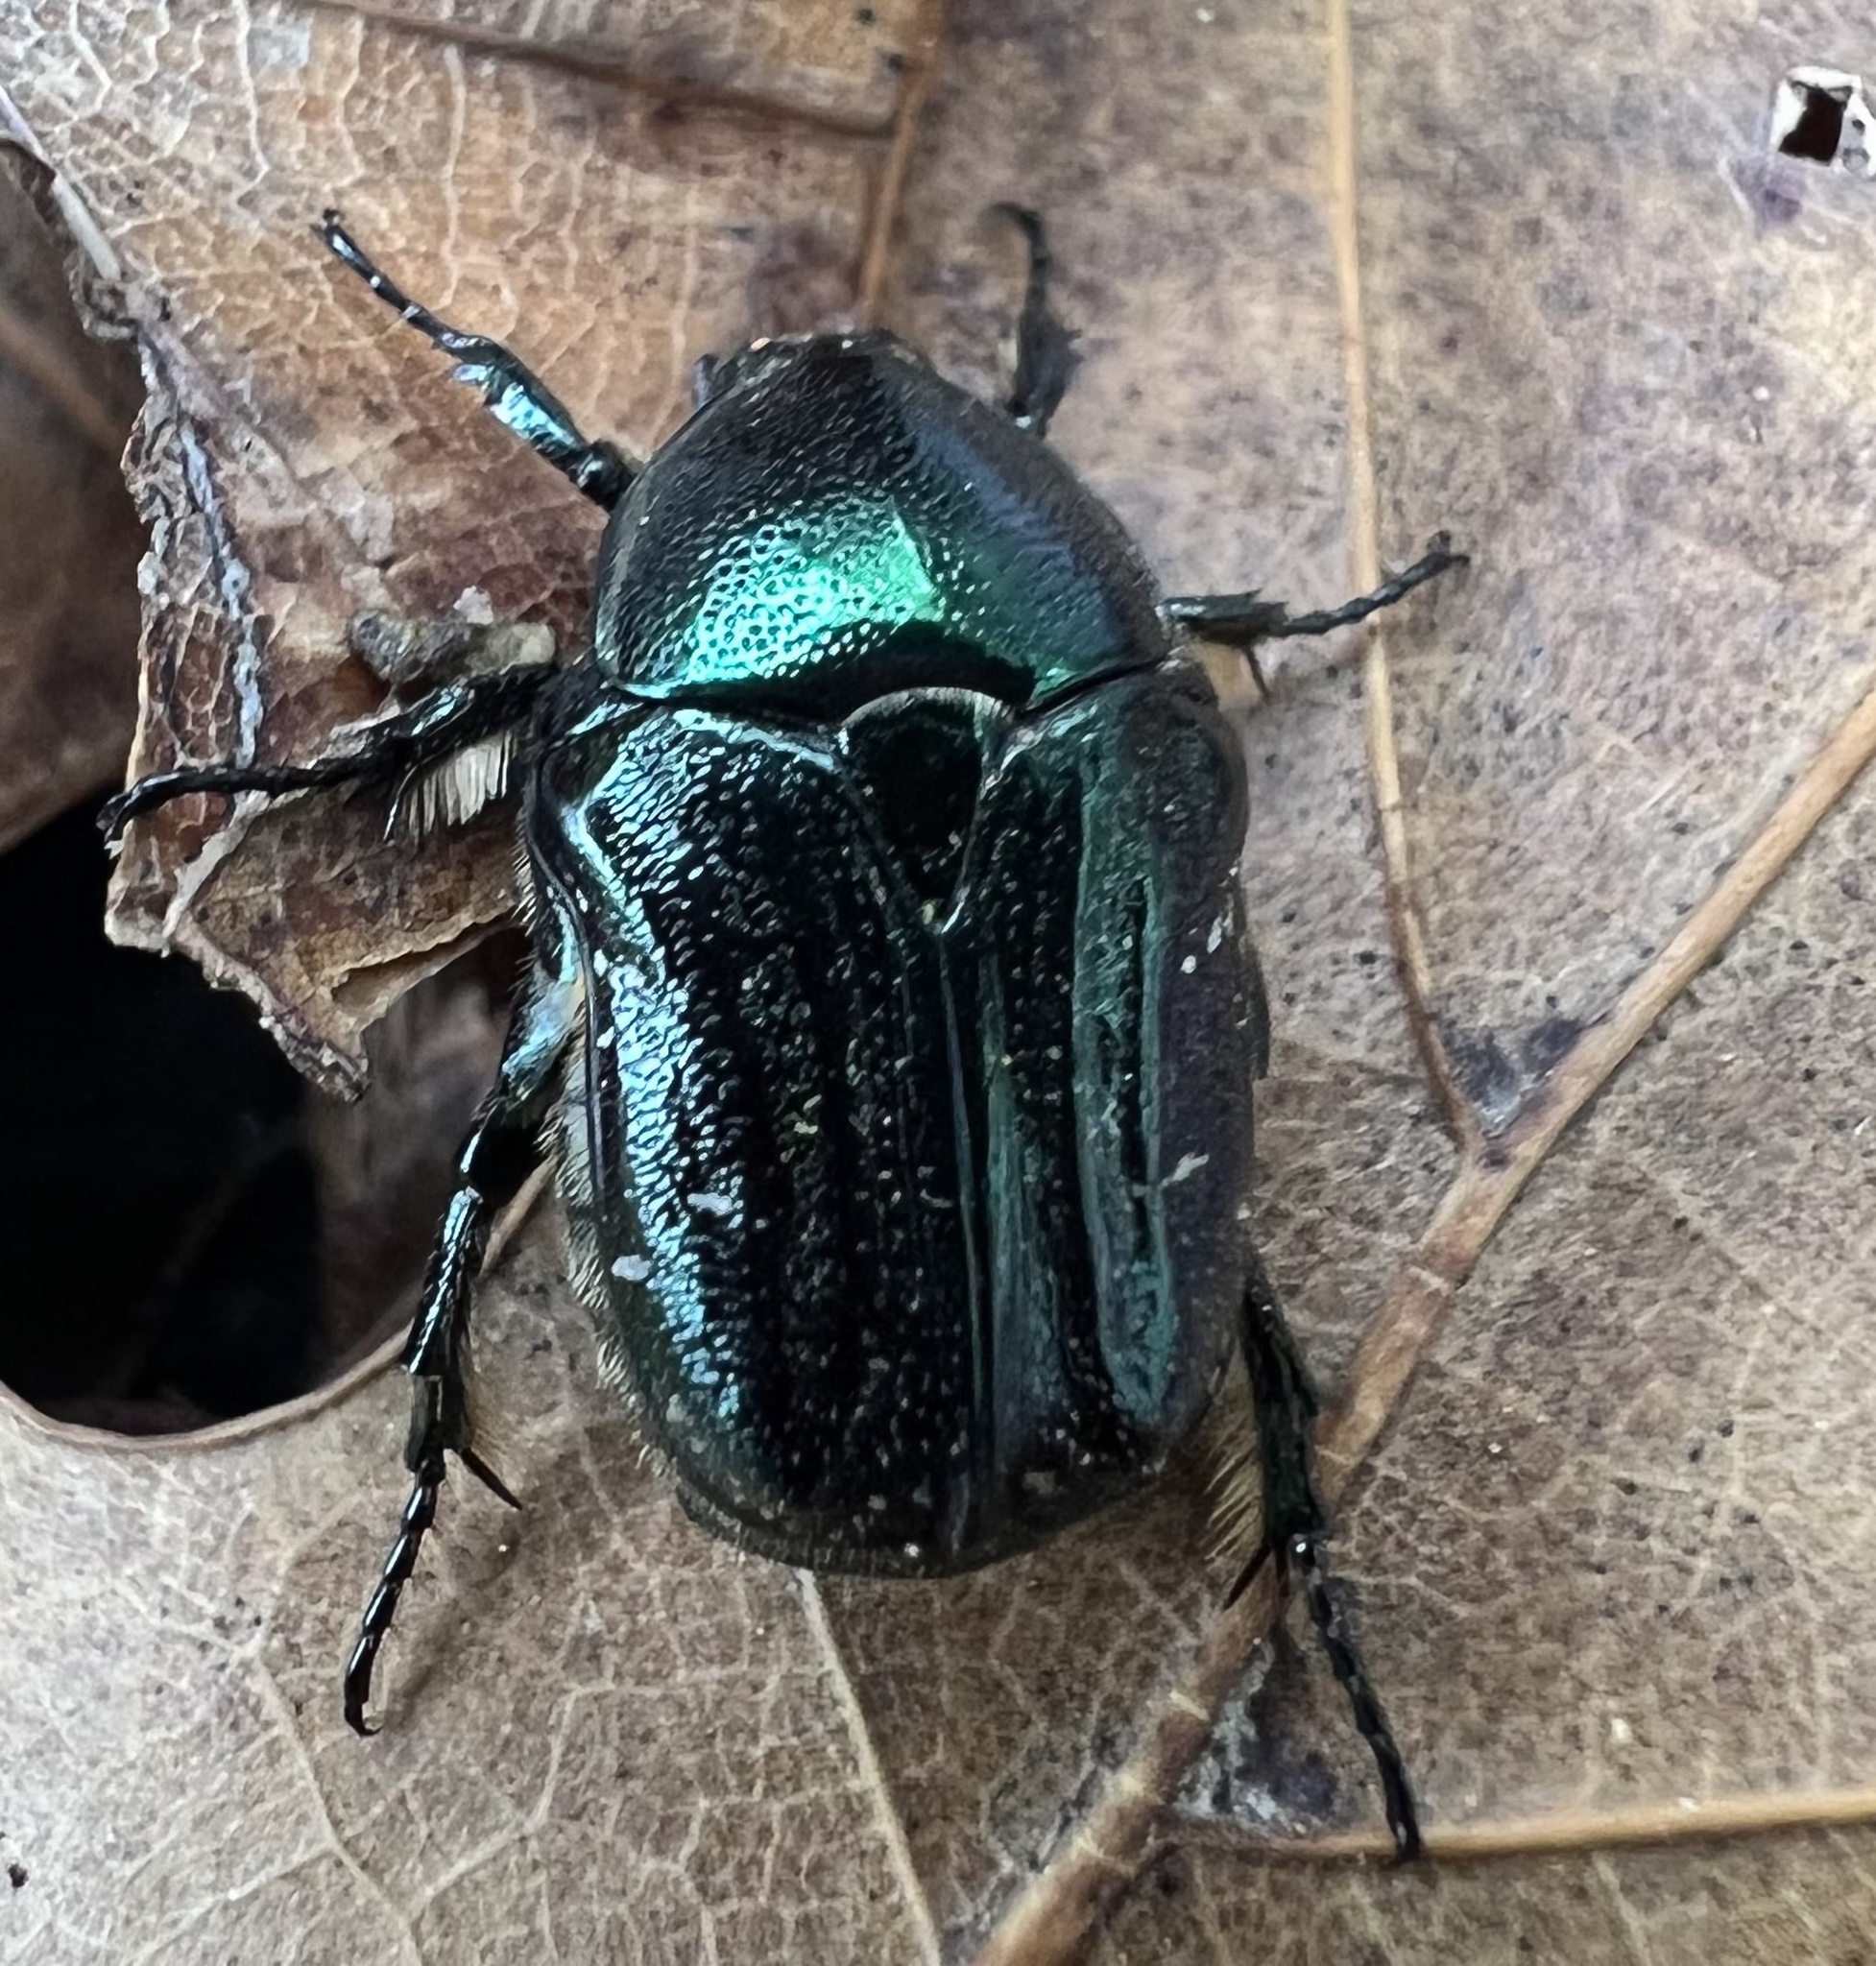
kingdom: Animalia
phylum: Arthropoda
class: Insecta
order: Coleoptera
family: Scarabaeidae
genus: Euphoria
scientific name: Euphoria sepulcralis
